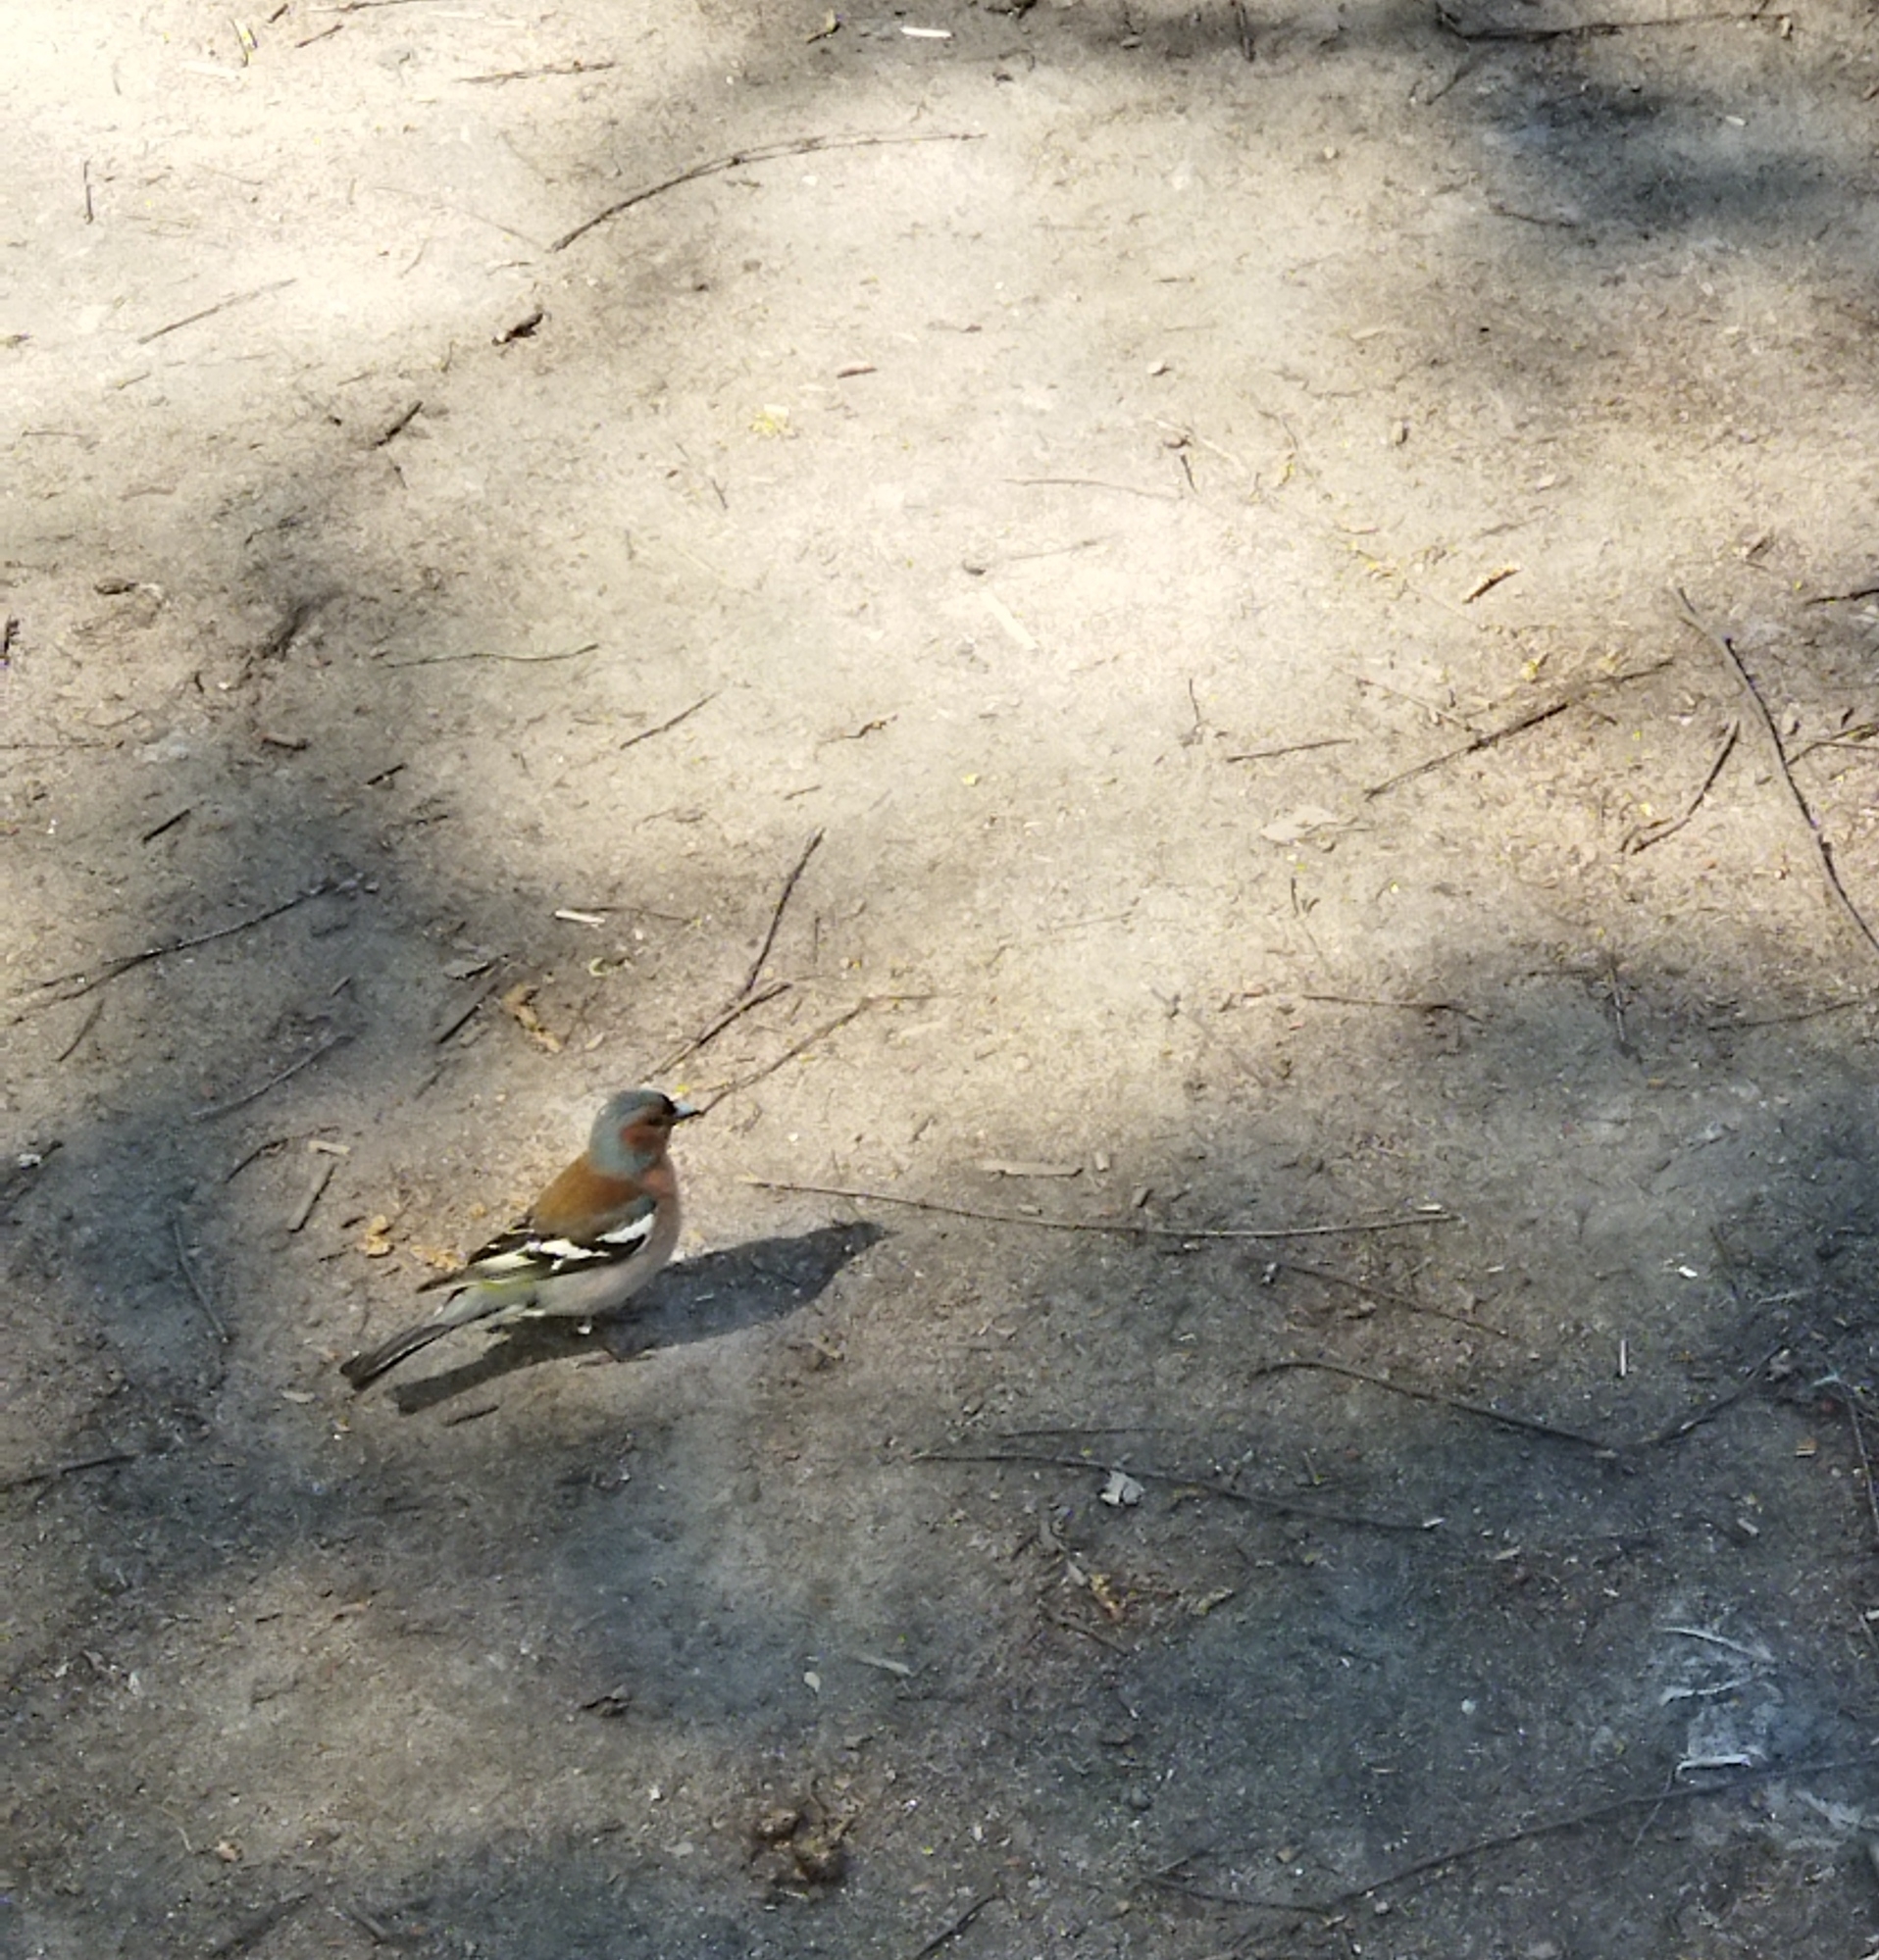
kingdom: Animalia
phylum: Chordata
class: Aves
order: Passeriformes
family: Fringillidae
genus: Fringilla
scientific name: Fringilla coelebs
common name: Common chaffinch
